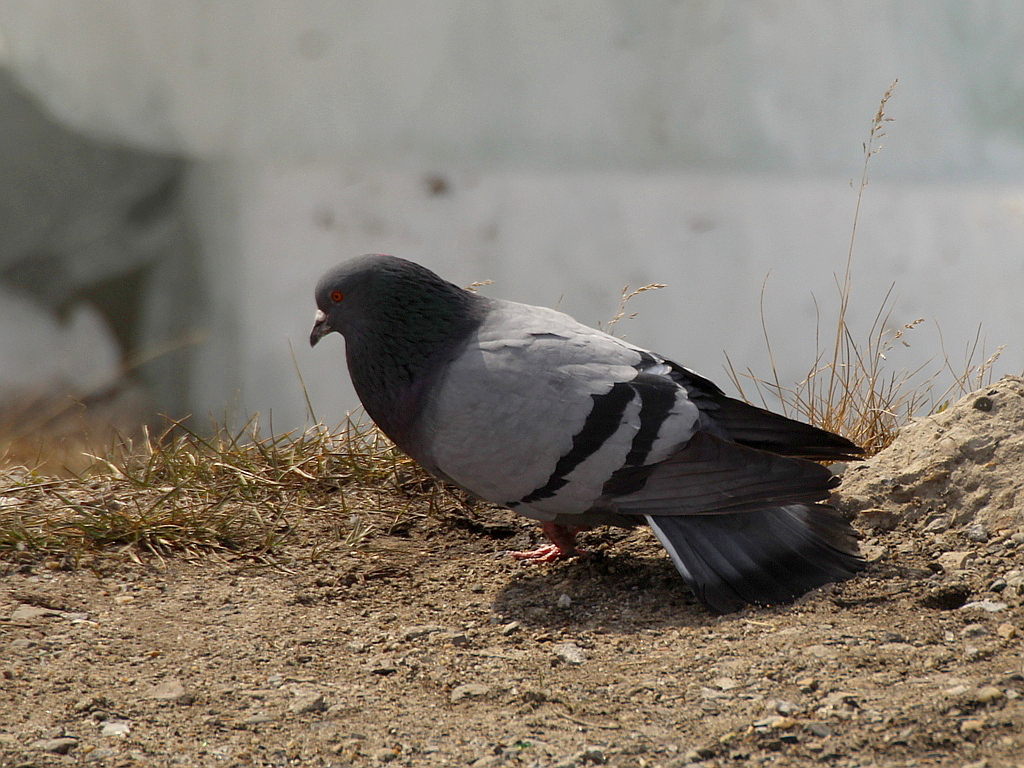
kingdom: Animalia
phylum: Chordata
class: Aves
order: Columbiformes
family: Columbidae
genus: Columba
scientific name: Columba livia
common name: Rock pigeon
